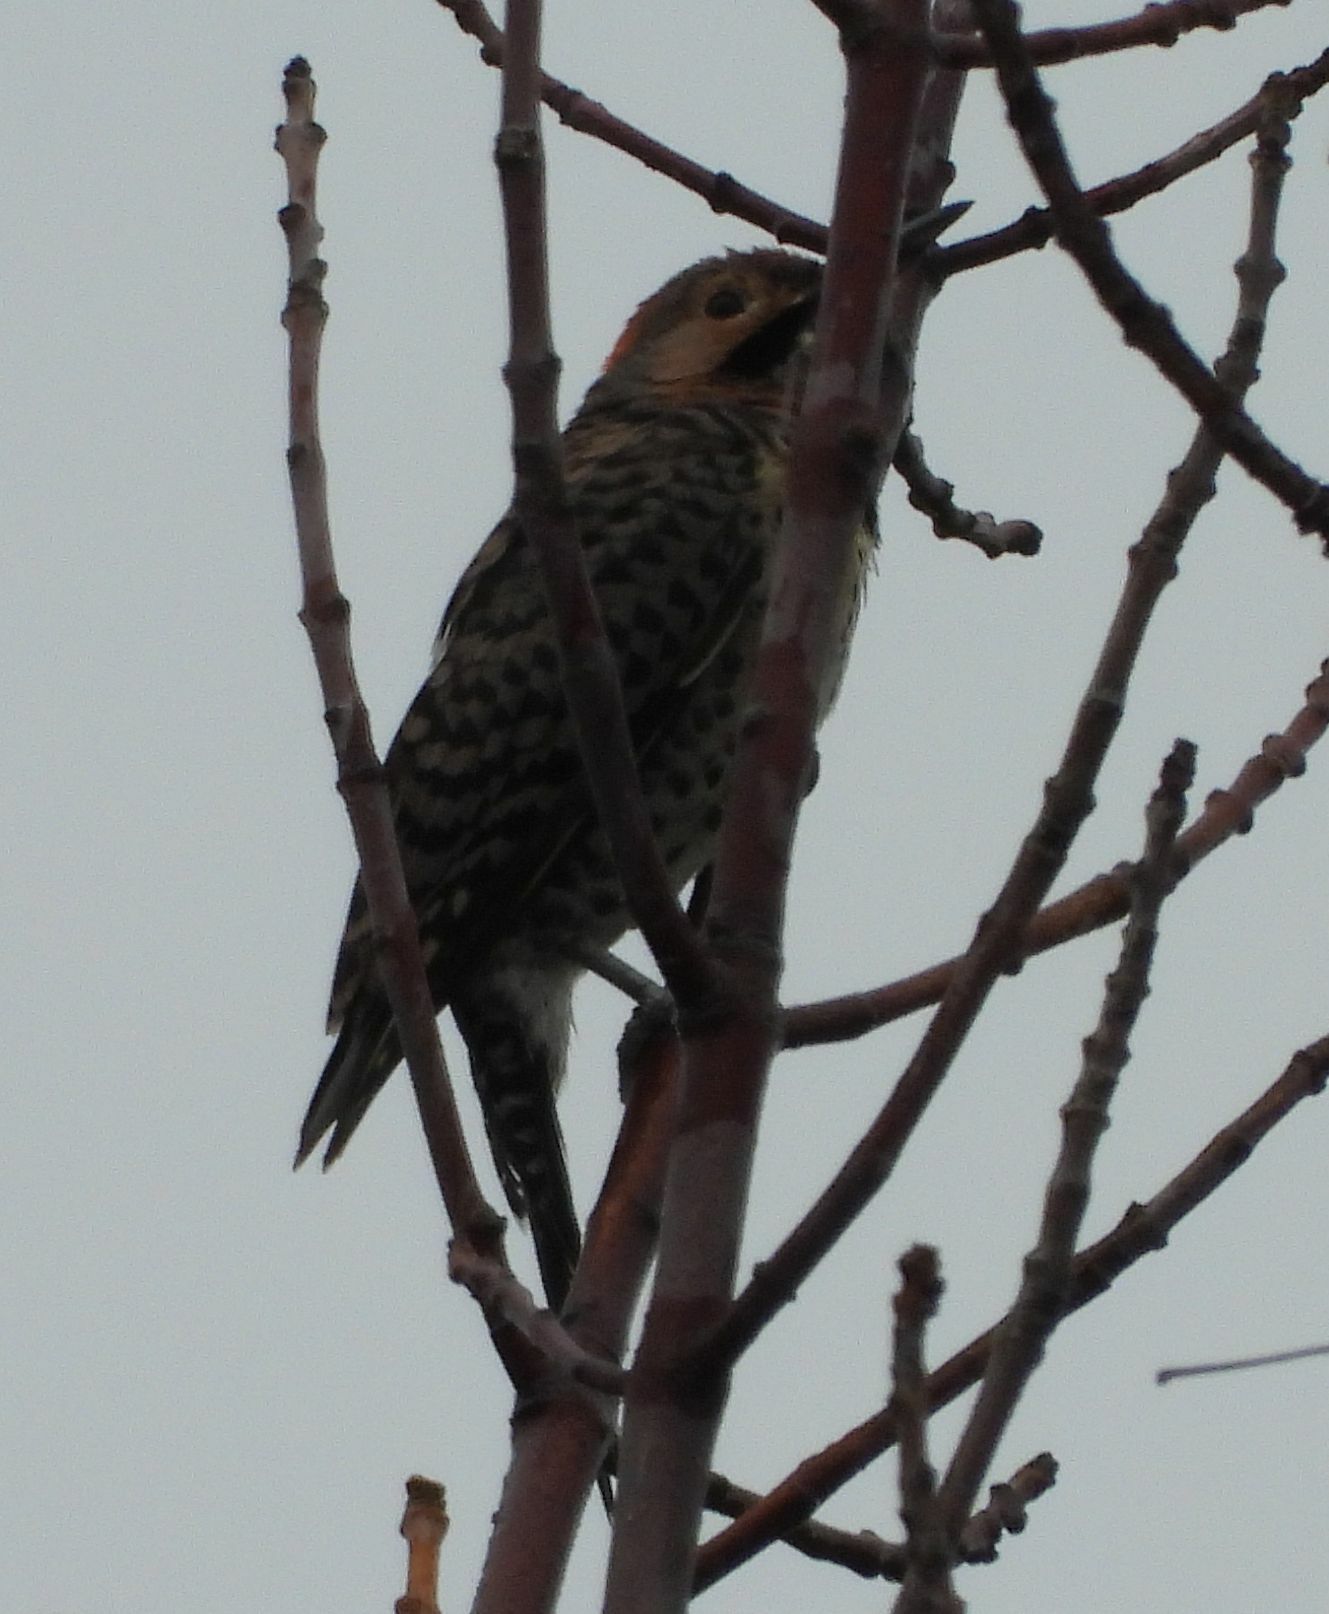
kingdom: Animalia
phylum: Chordata
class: Aves
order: Piciformes
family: Picidae
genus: Colaptes
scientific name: Colaptes auratus
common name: Northern flicker
